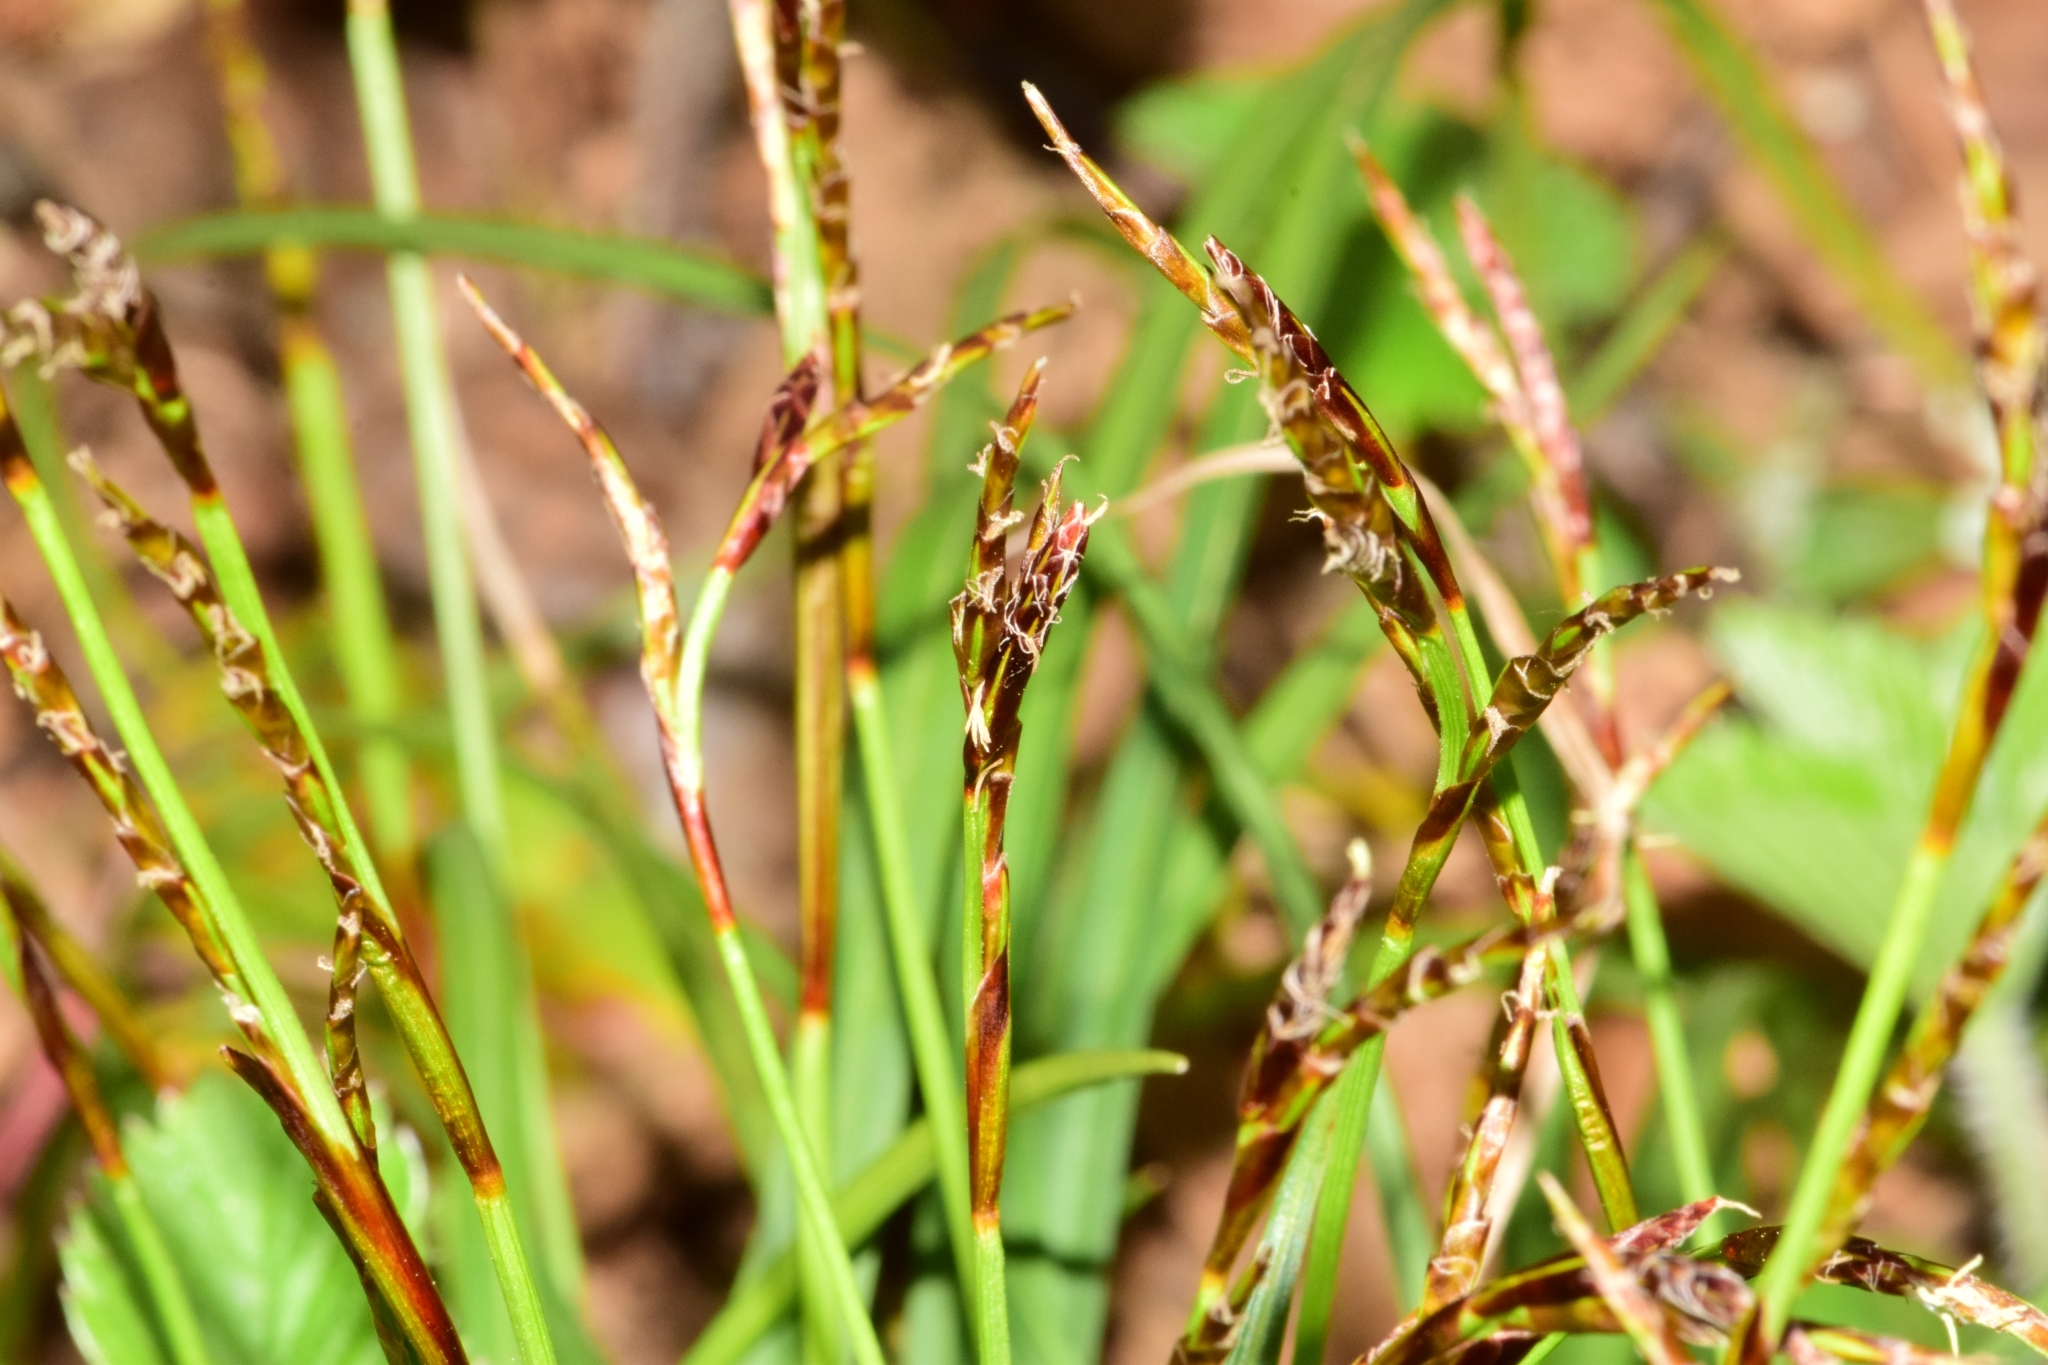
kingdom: Plantae
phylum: Tracheophyta
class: Liliopsida
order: Poales
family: Cyperaceae
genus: Carex
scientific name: Carex digitata
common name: Fingered sedge
